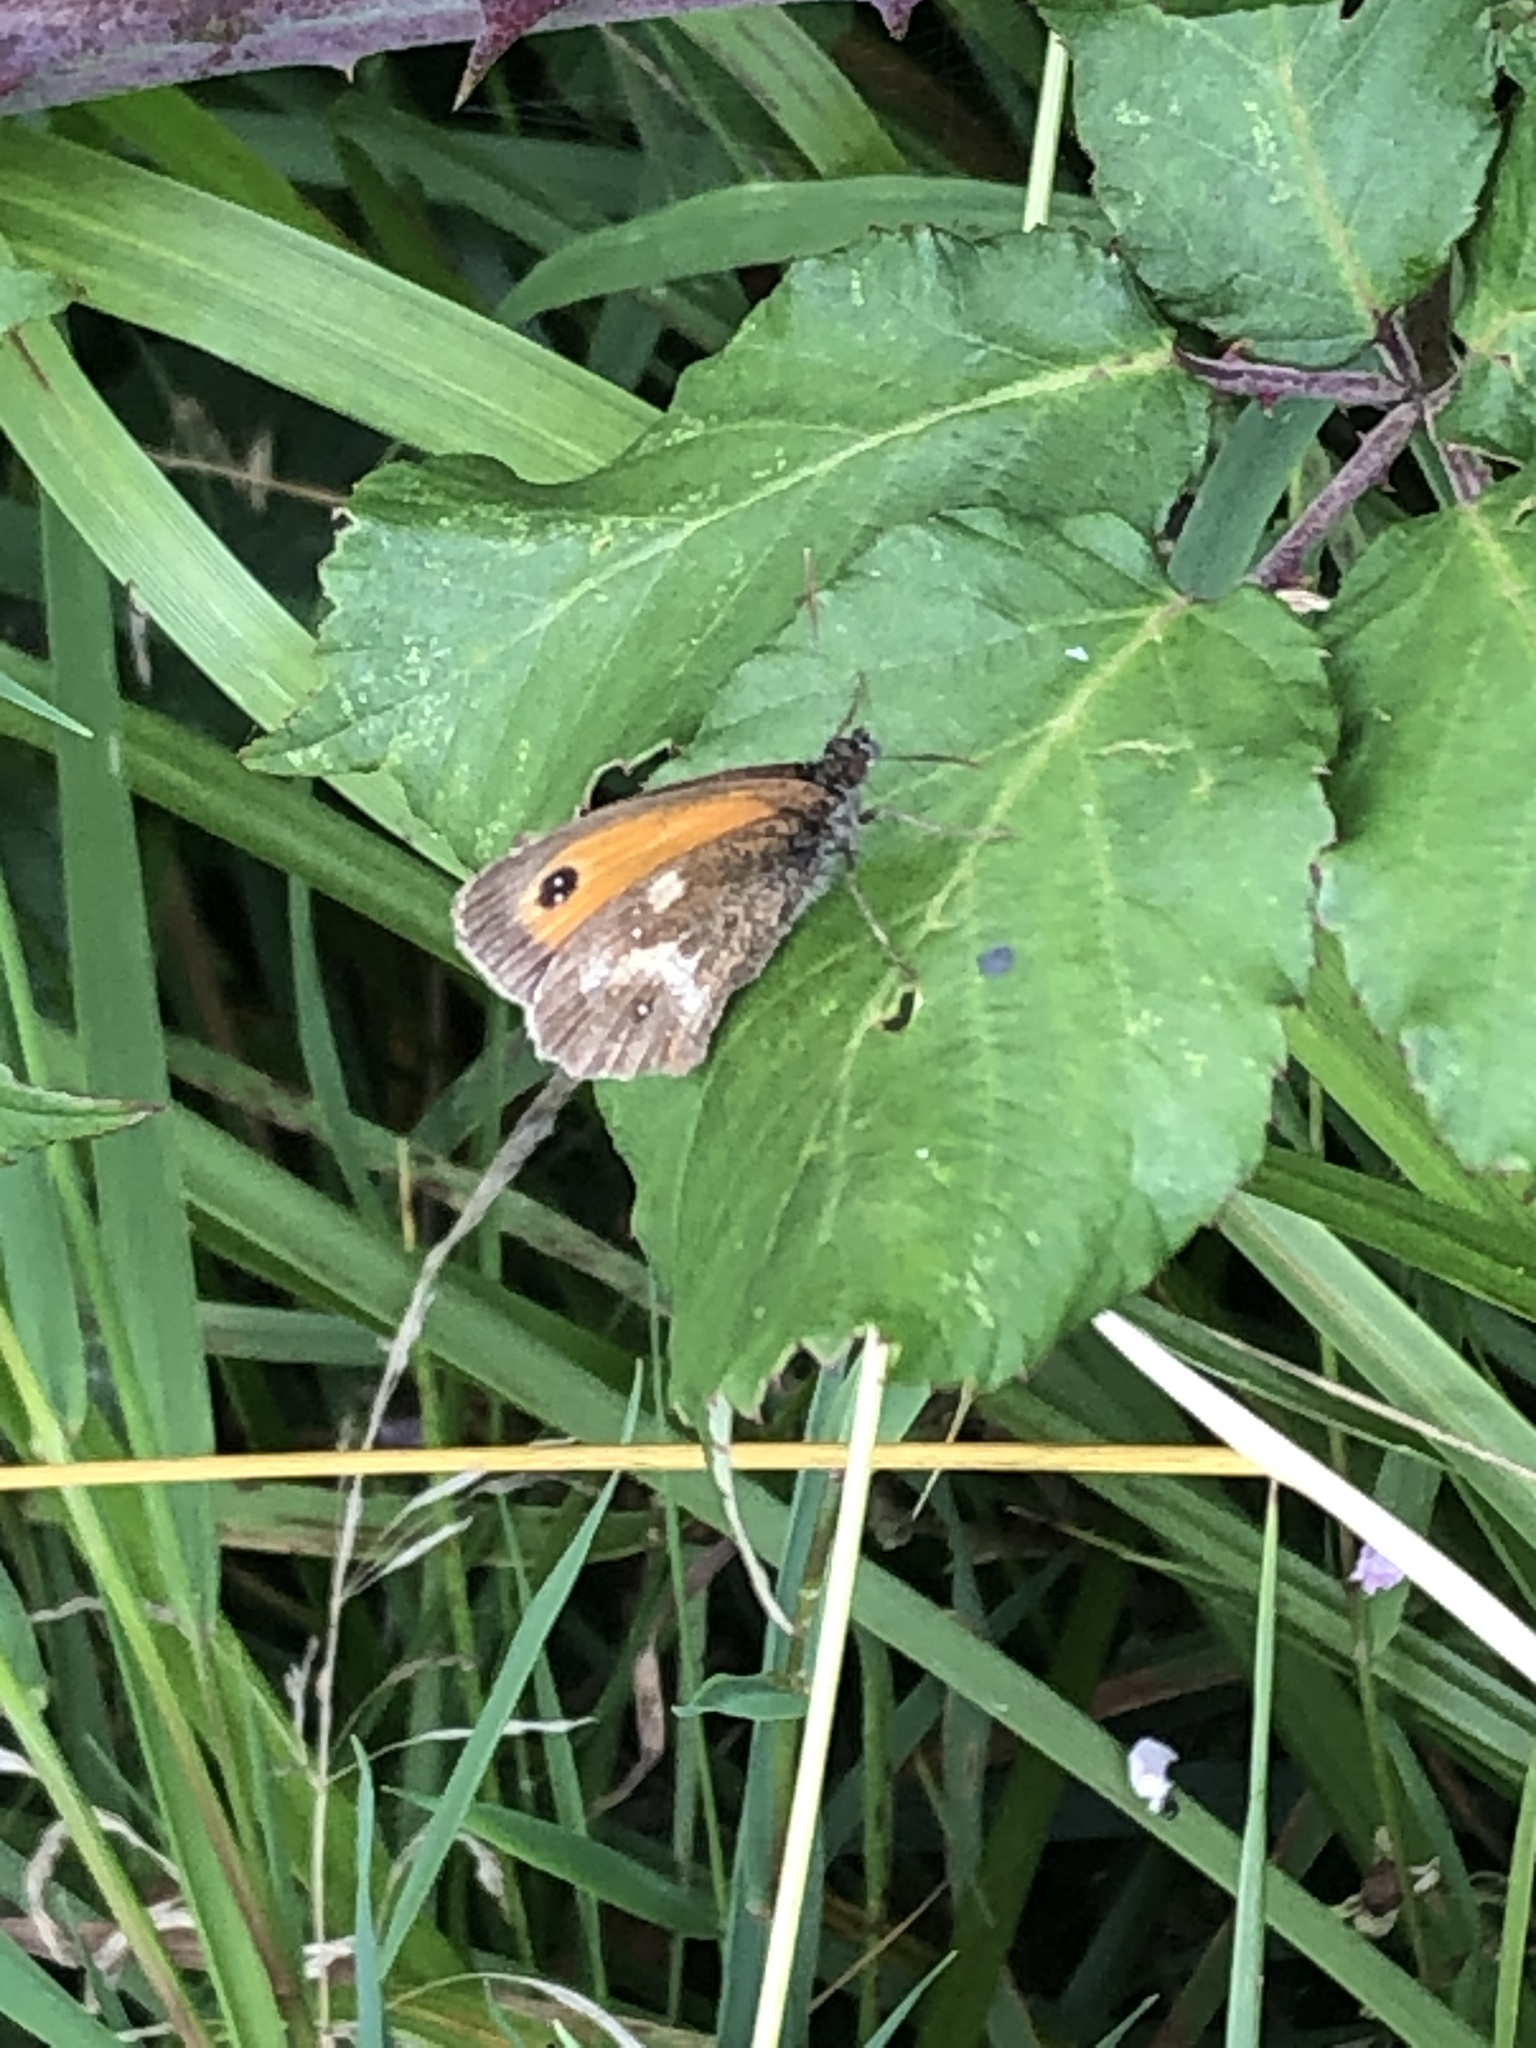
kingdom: Animalia
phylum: Arthropoda
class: Insecta
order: Lepidoptera
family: Nymphalidae
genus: Pyronia
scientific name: Pyronia tithonus
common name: Gatekeeper
